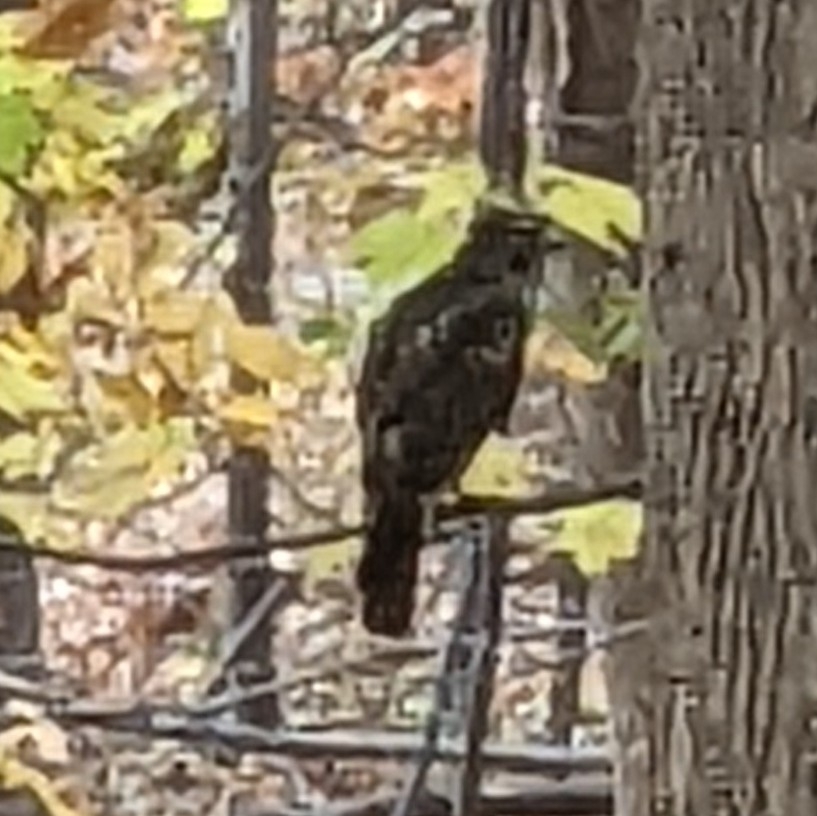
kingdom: Animalia
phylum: Chordata
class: Aves
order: Accipitriformes
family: Accipitridae
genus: Buteo
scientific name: Buteo lineatus
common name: Red-shouldered hawk
